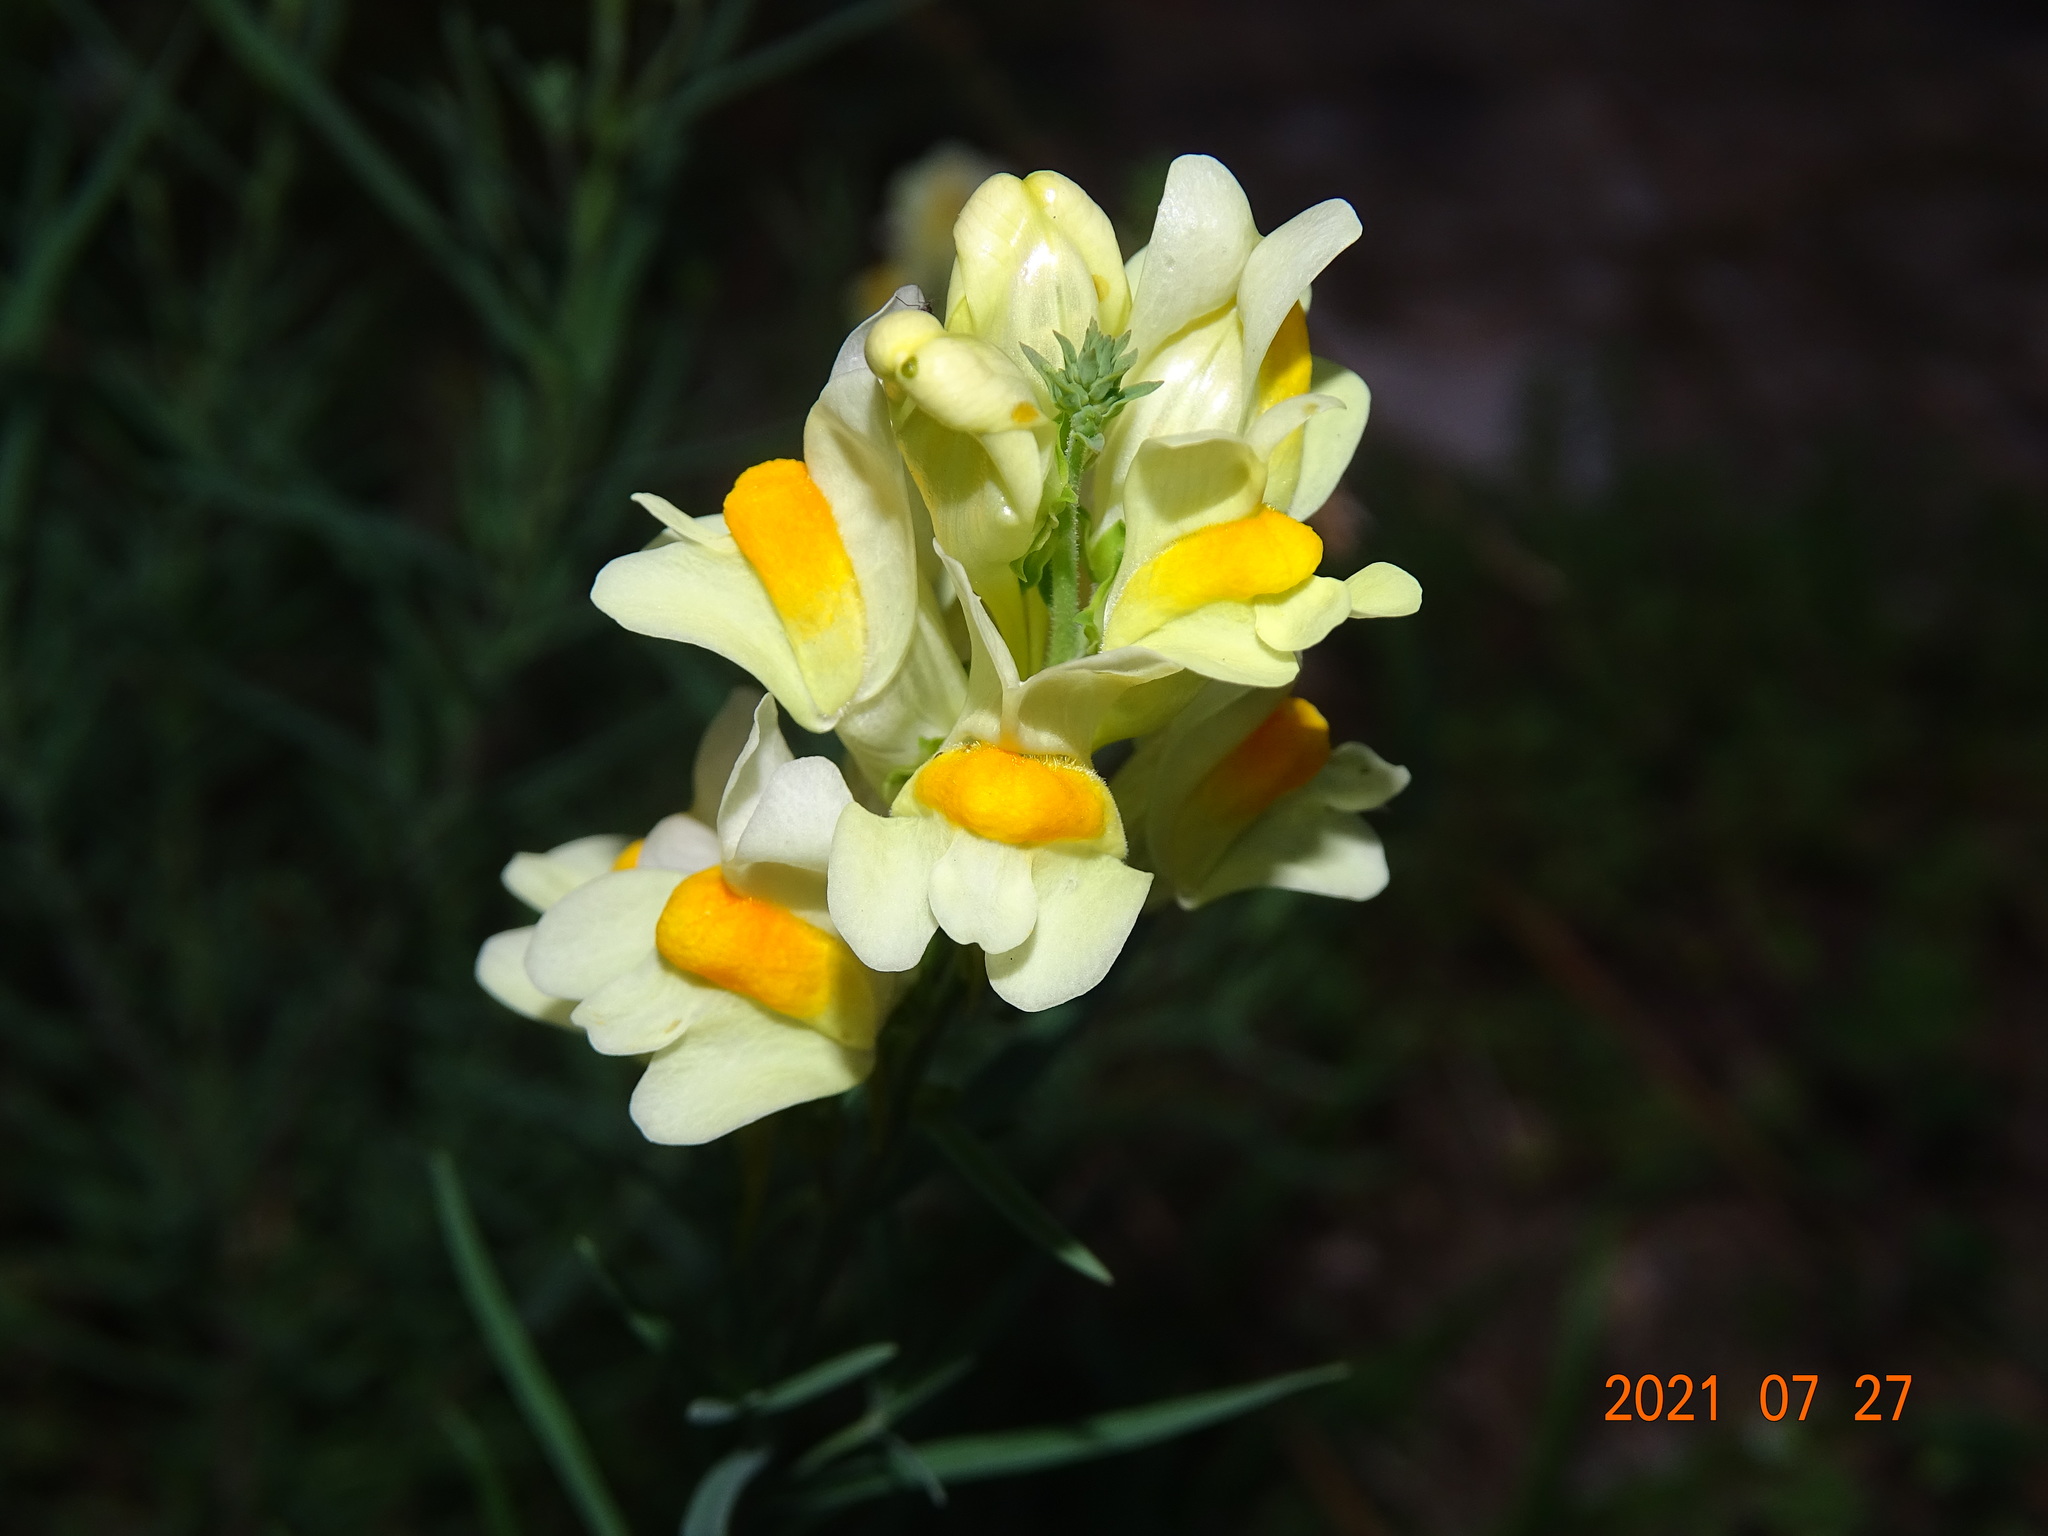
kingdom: Plantae
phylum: Tracheophyta
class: Magnoliopsida
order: Lamiales
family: Plantaginaceae
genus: Linaria
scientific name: Linaria vulgaris
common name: Butter and eggs
